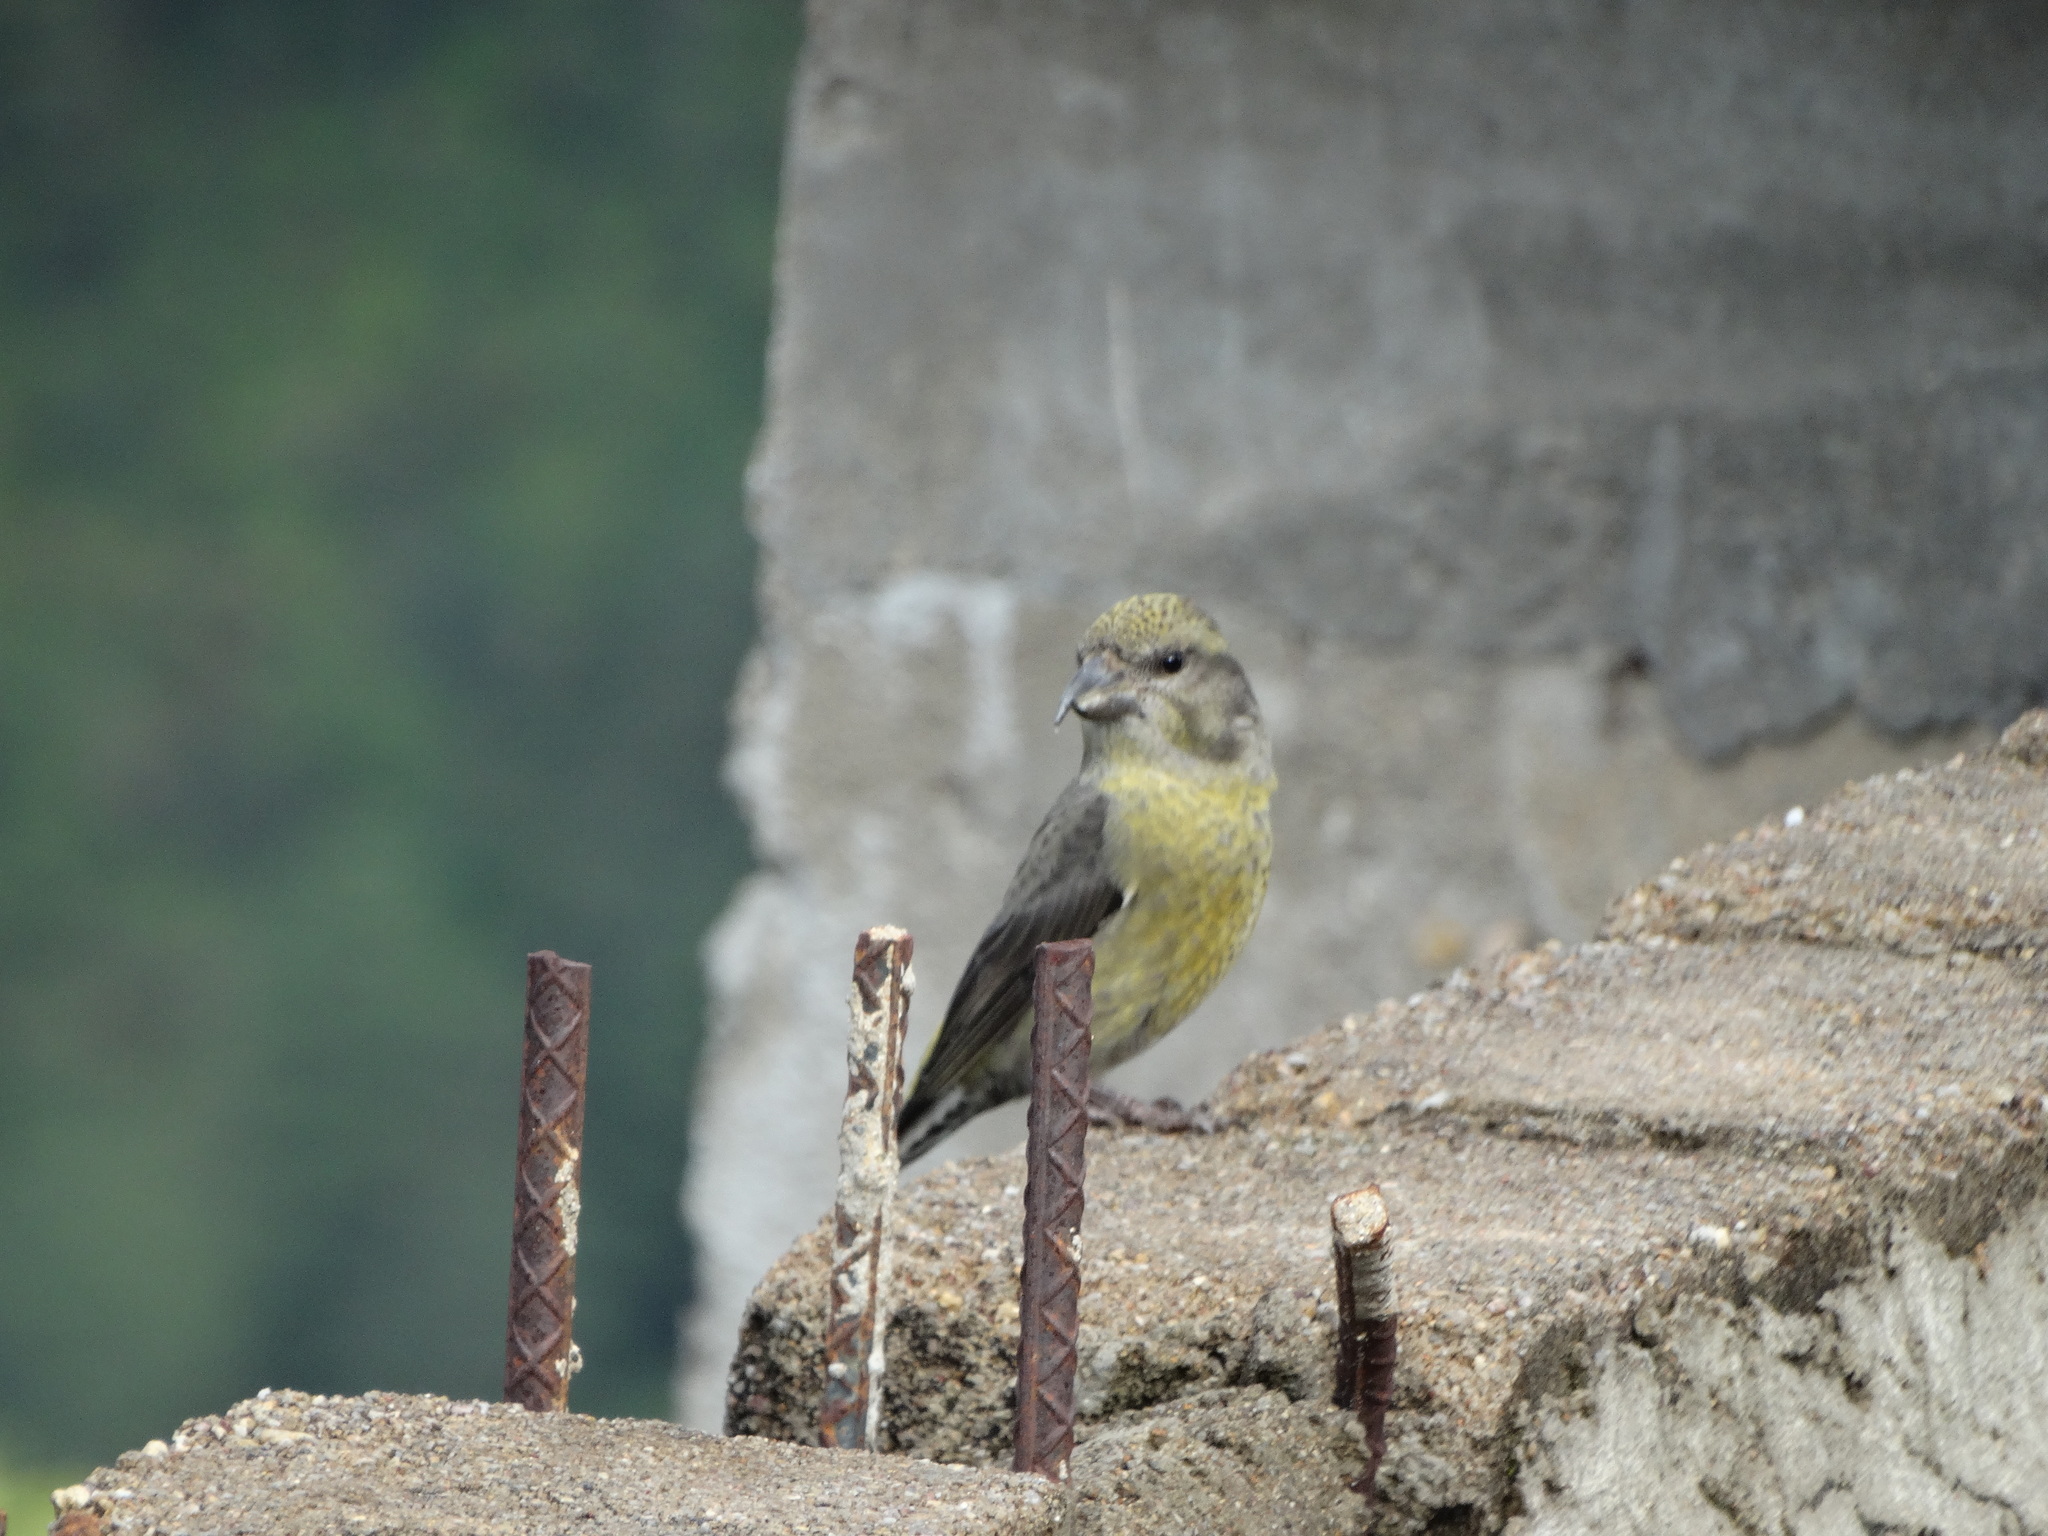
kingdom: Animalia
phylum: Chordata
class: Aves
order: Passeriformes
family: Fringillidae
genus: Loxia
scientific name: Loxia curvirostra
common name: Red crossbill
